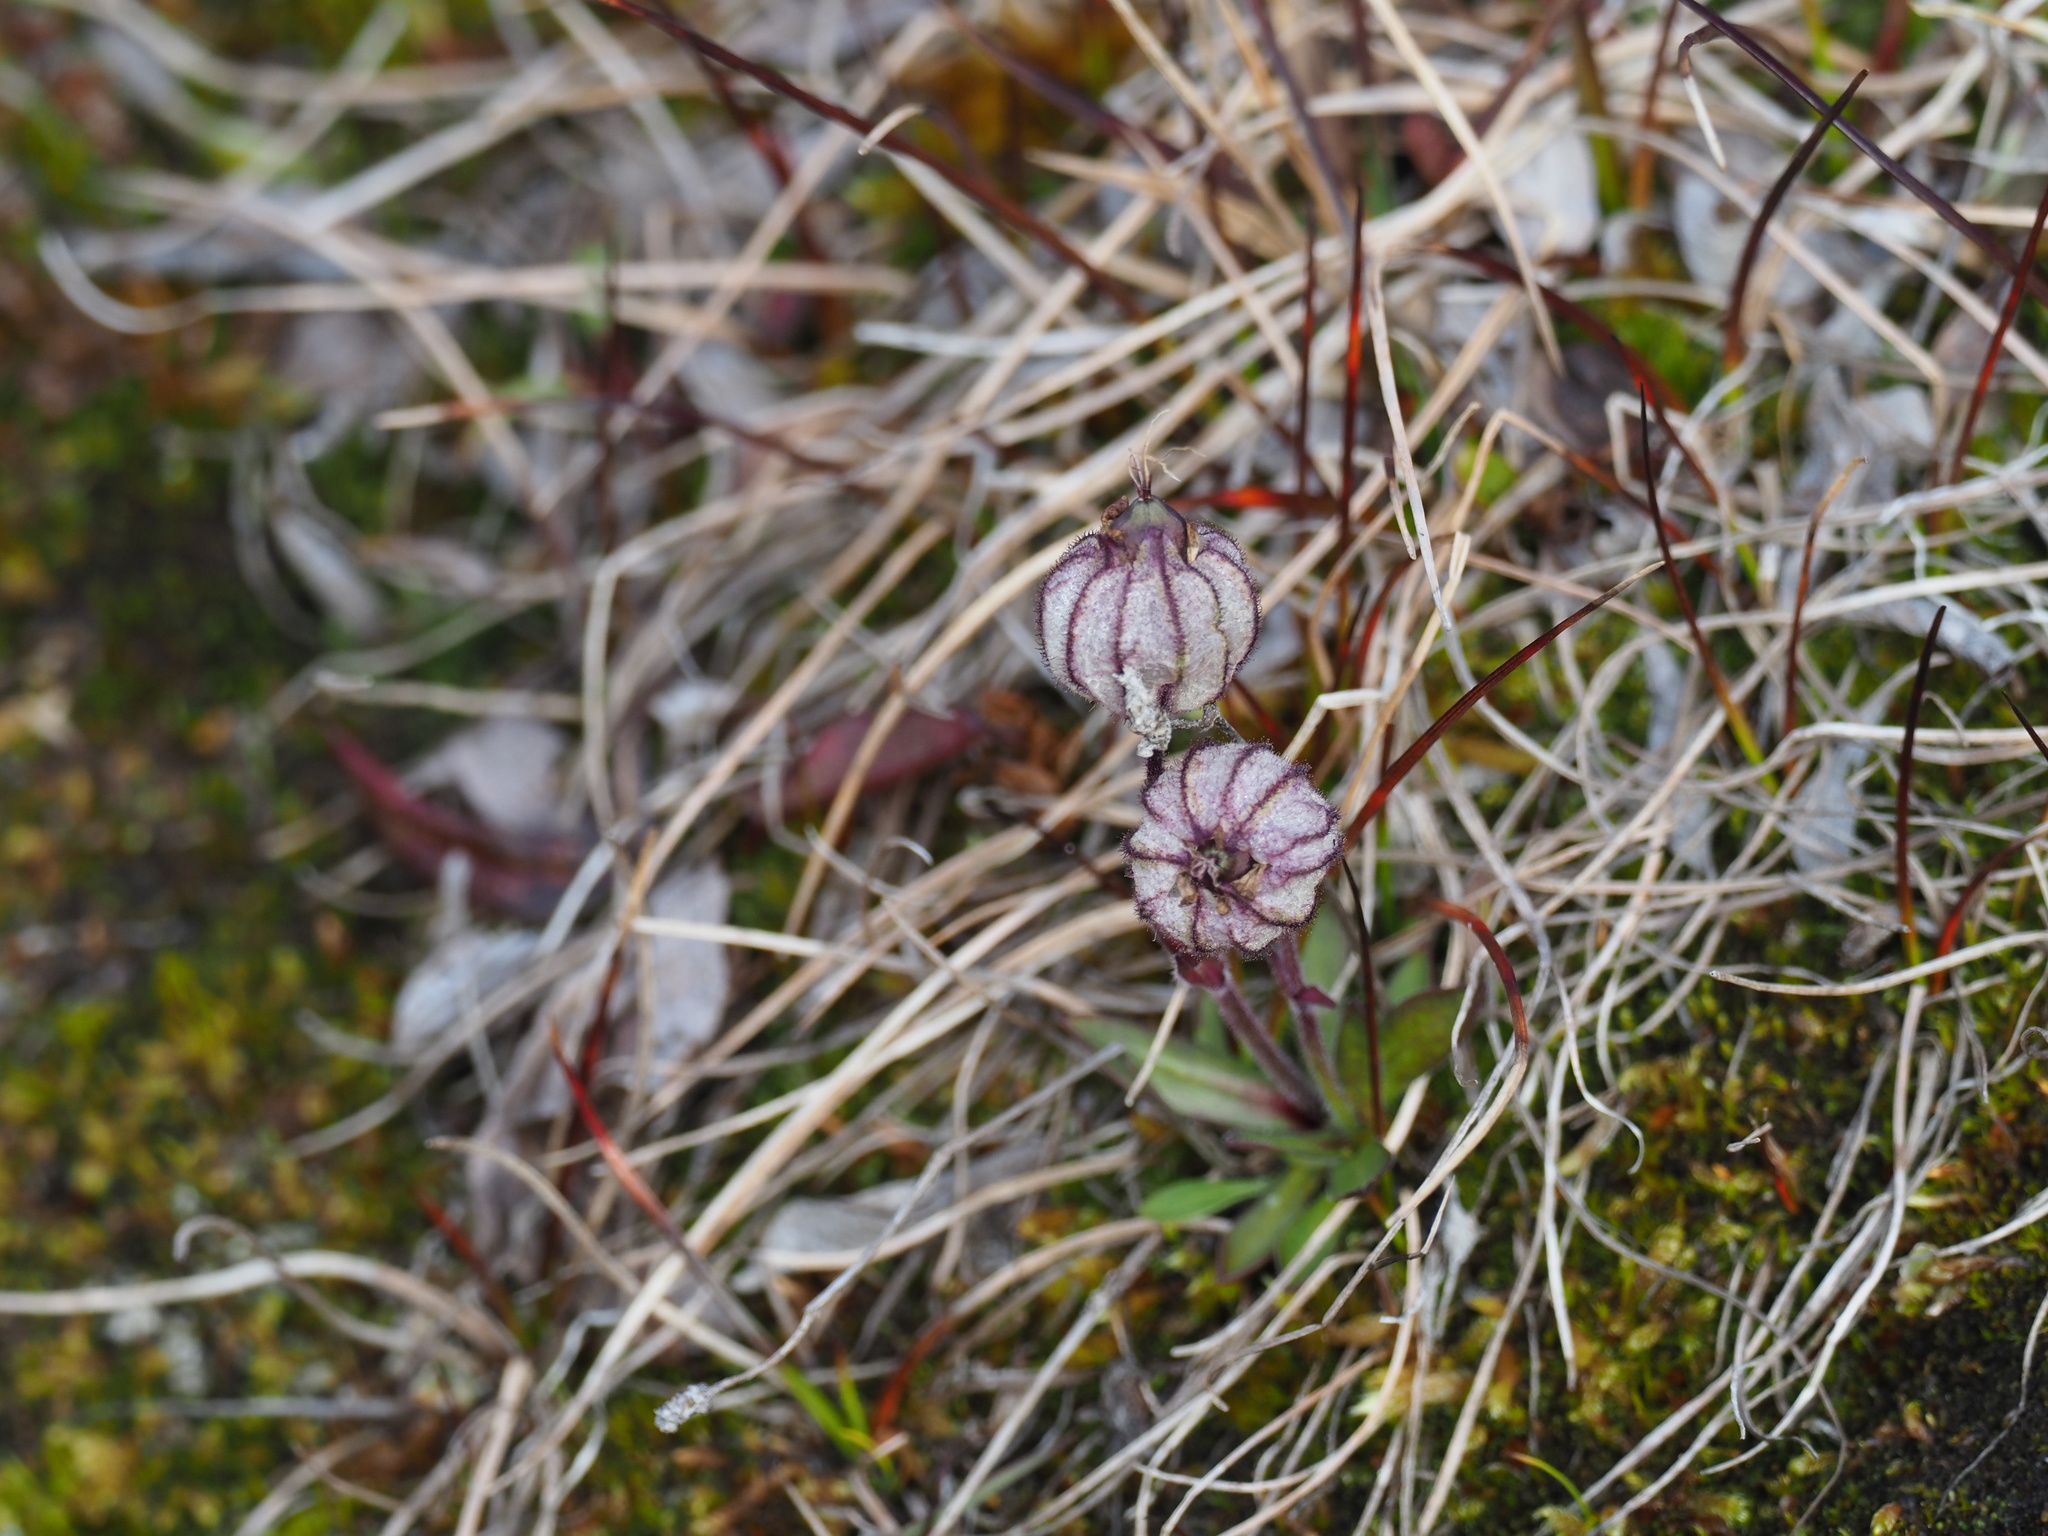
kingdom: Plantae
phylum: Tracheophyta
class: Magnoliopsida
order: Caryophyllales
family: Caryophyllaceae
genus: Silene
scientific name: Silene uralensis
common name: Nodding campion
